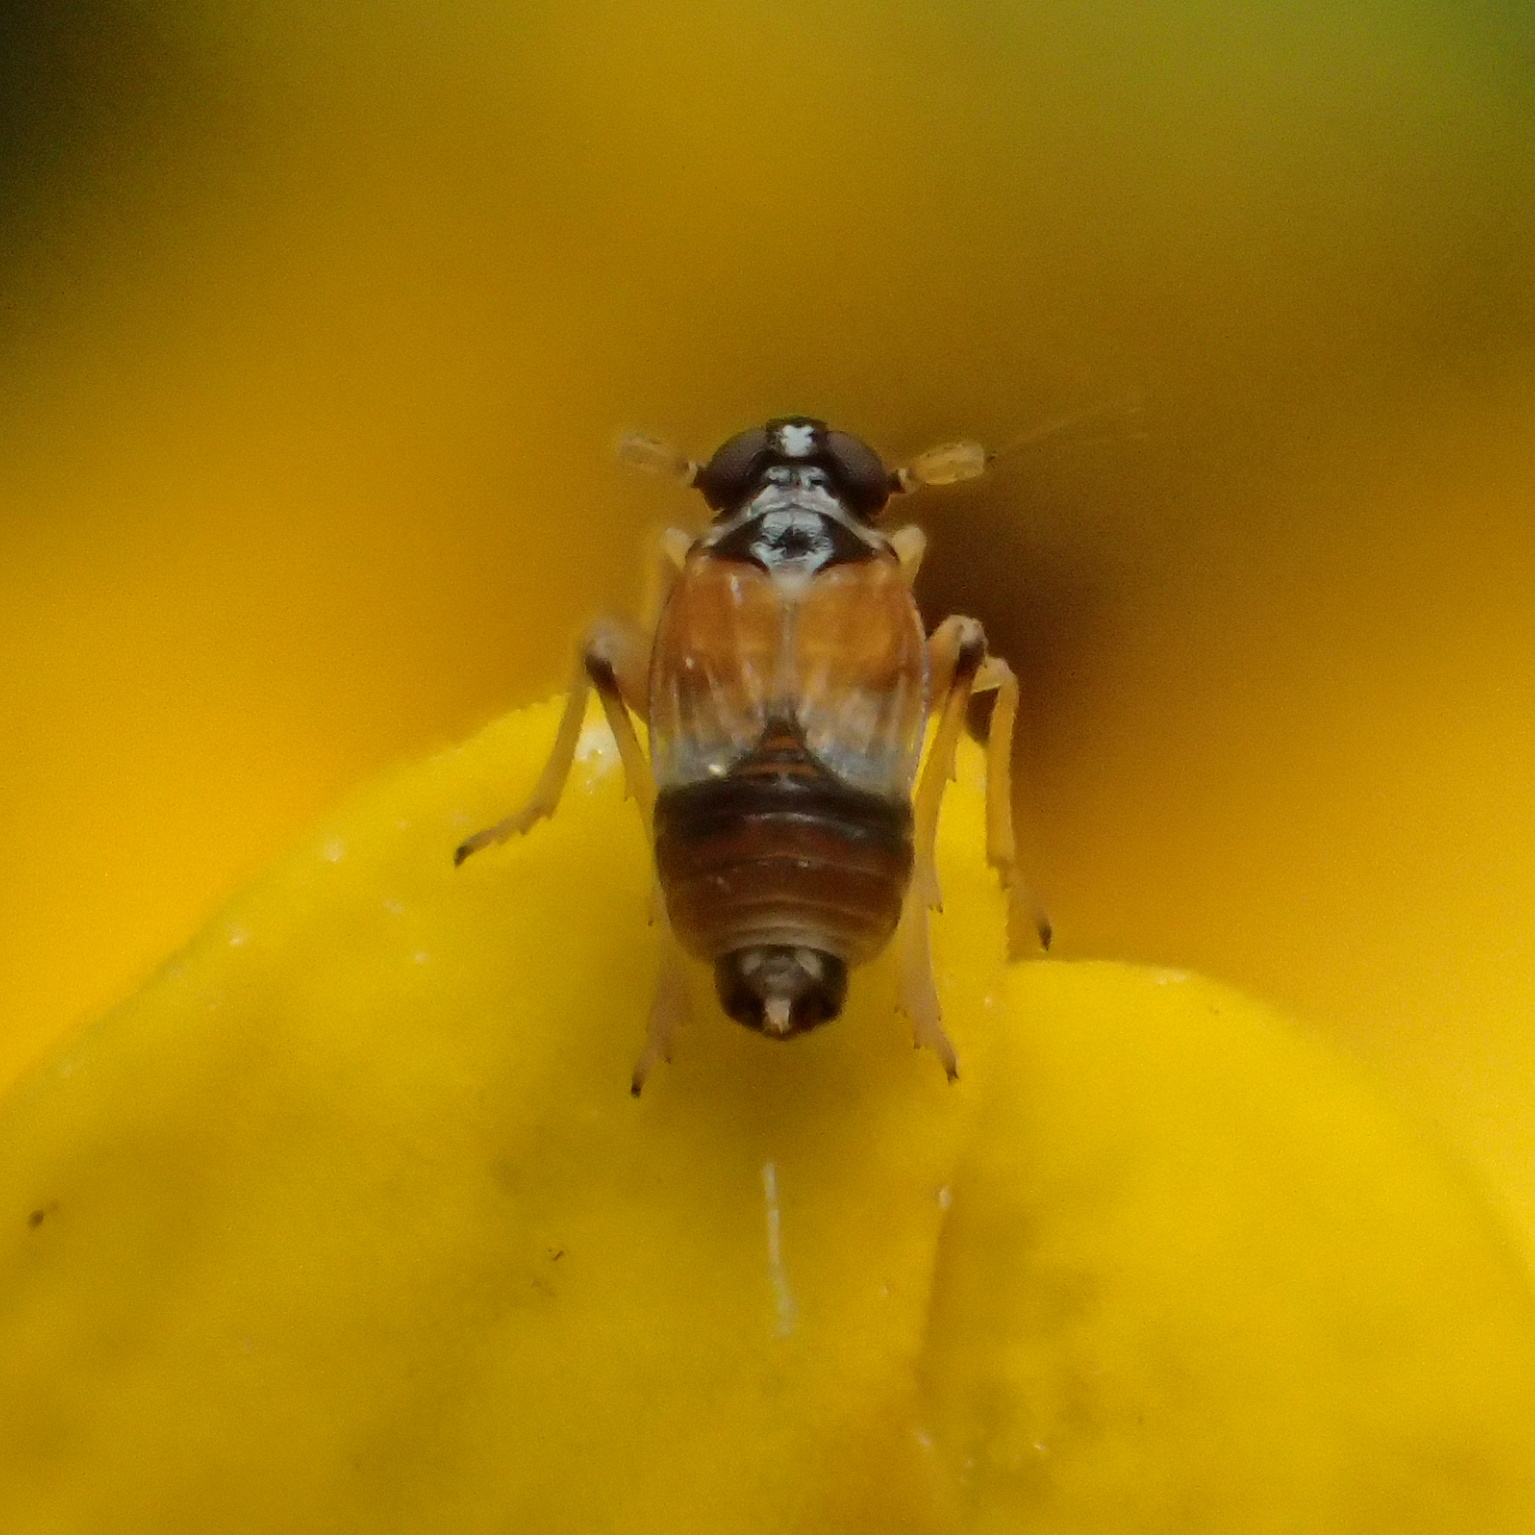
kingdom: Animalia
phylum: Arthropoda
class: Insecta
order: Hemiptera
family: Delphacidae
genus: Flavoclypeus
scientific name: Flavoclypeus andromedus
